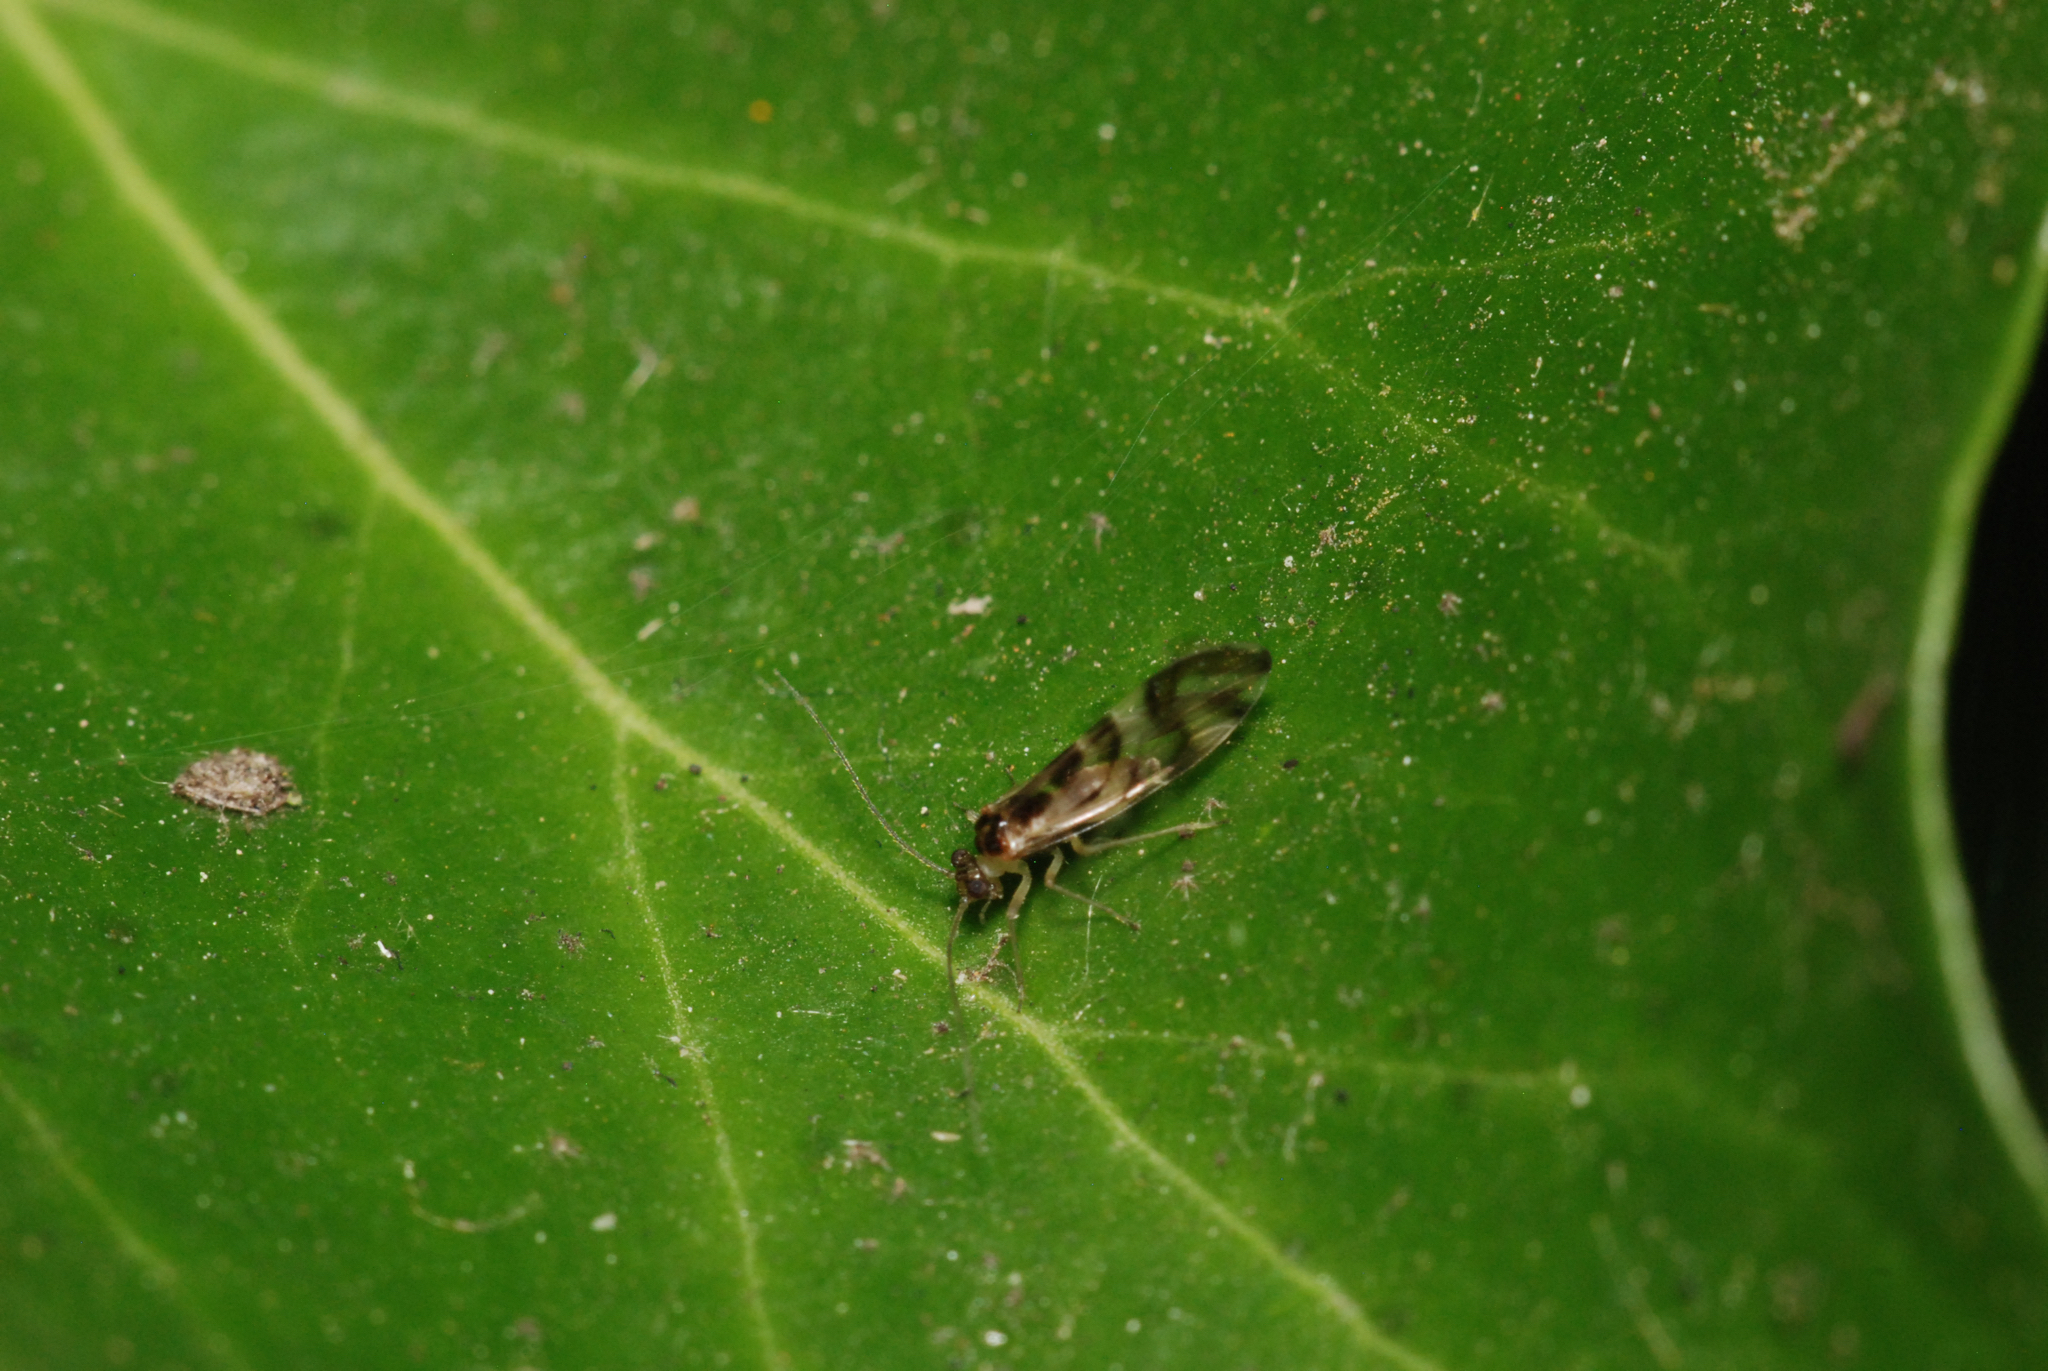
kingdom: Animalia
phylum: Arthropoda
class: Insecta
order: Psocodea
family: Stenopsocidae
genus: Graphopsocus
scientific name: Graphopsocus cruciatus
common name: Lizard bark louse
